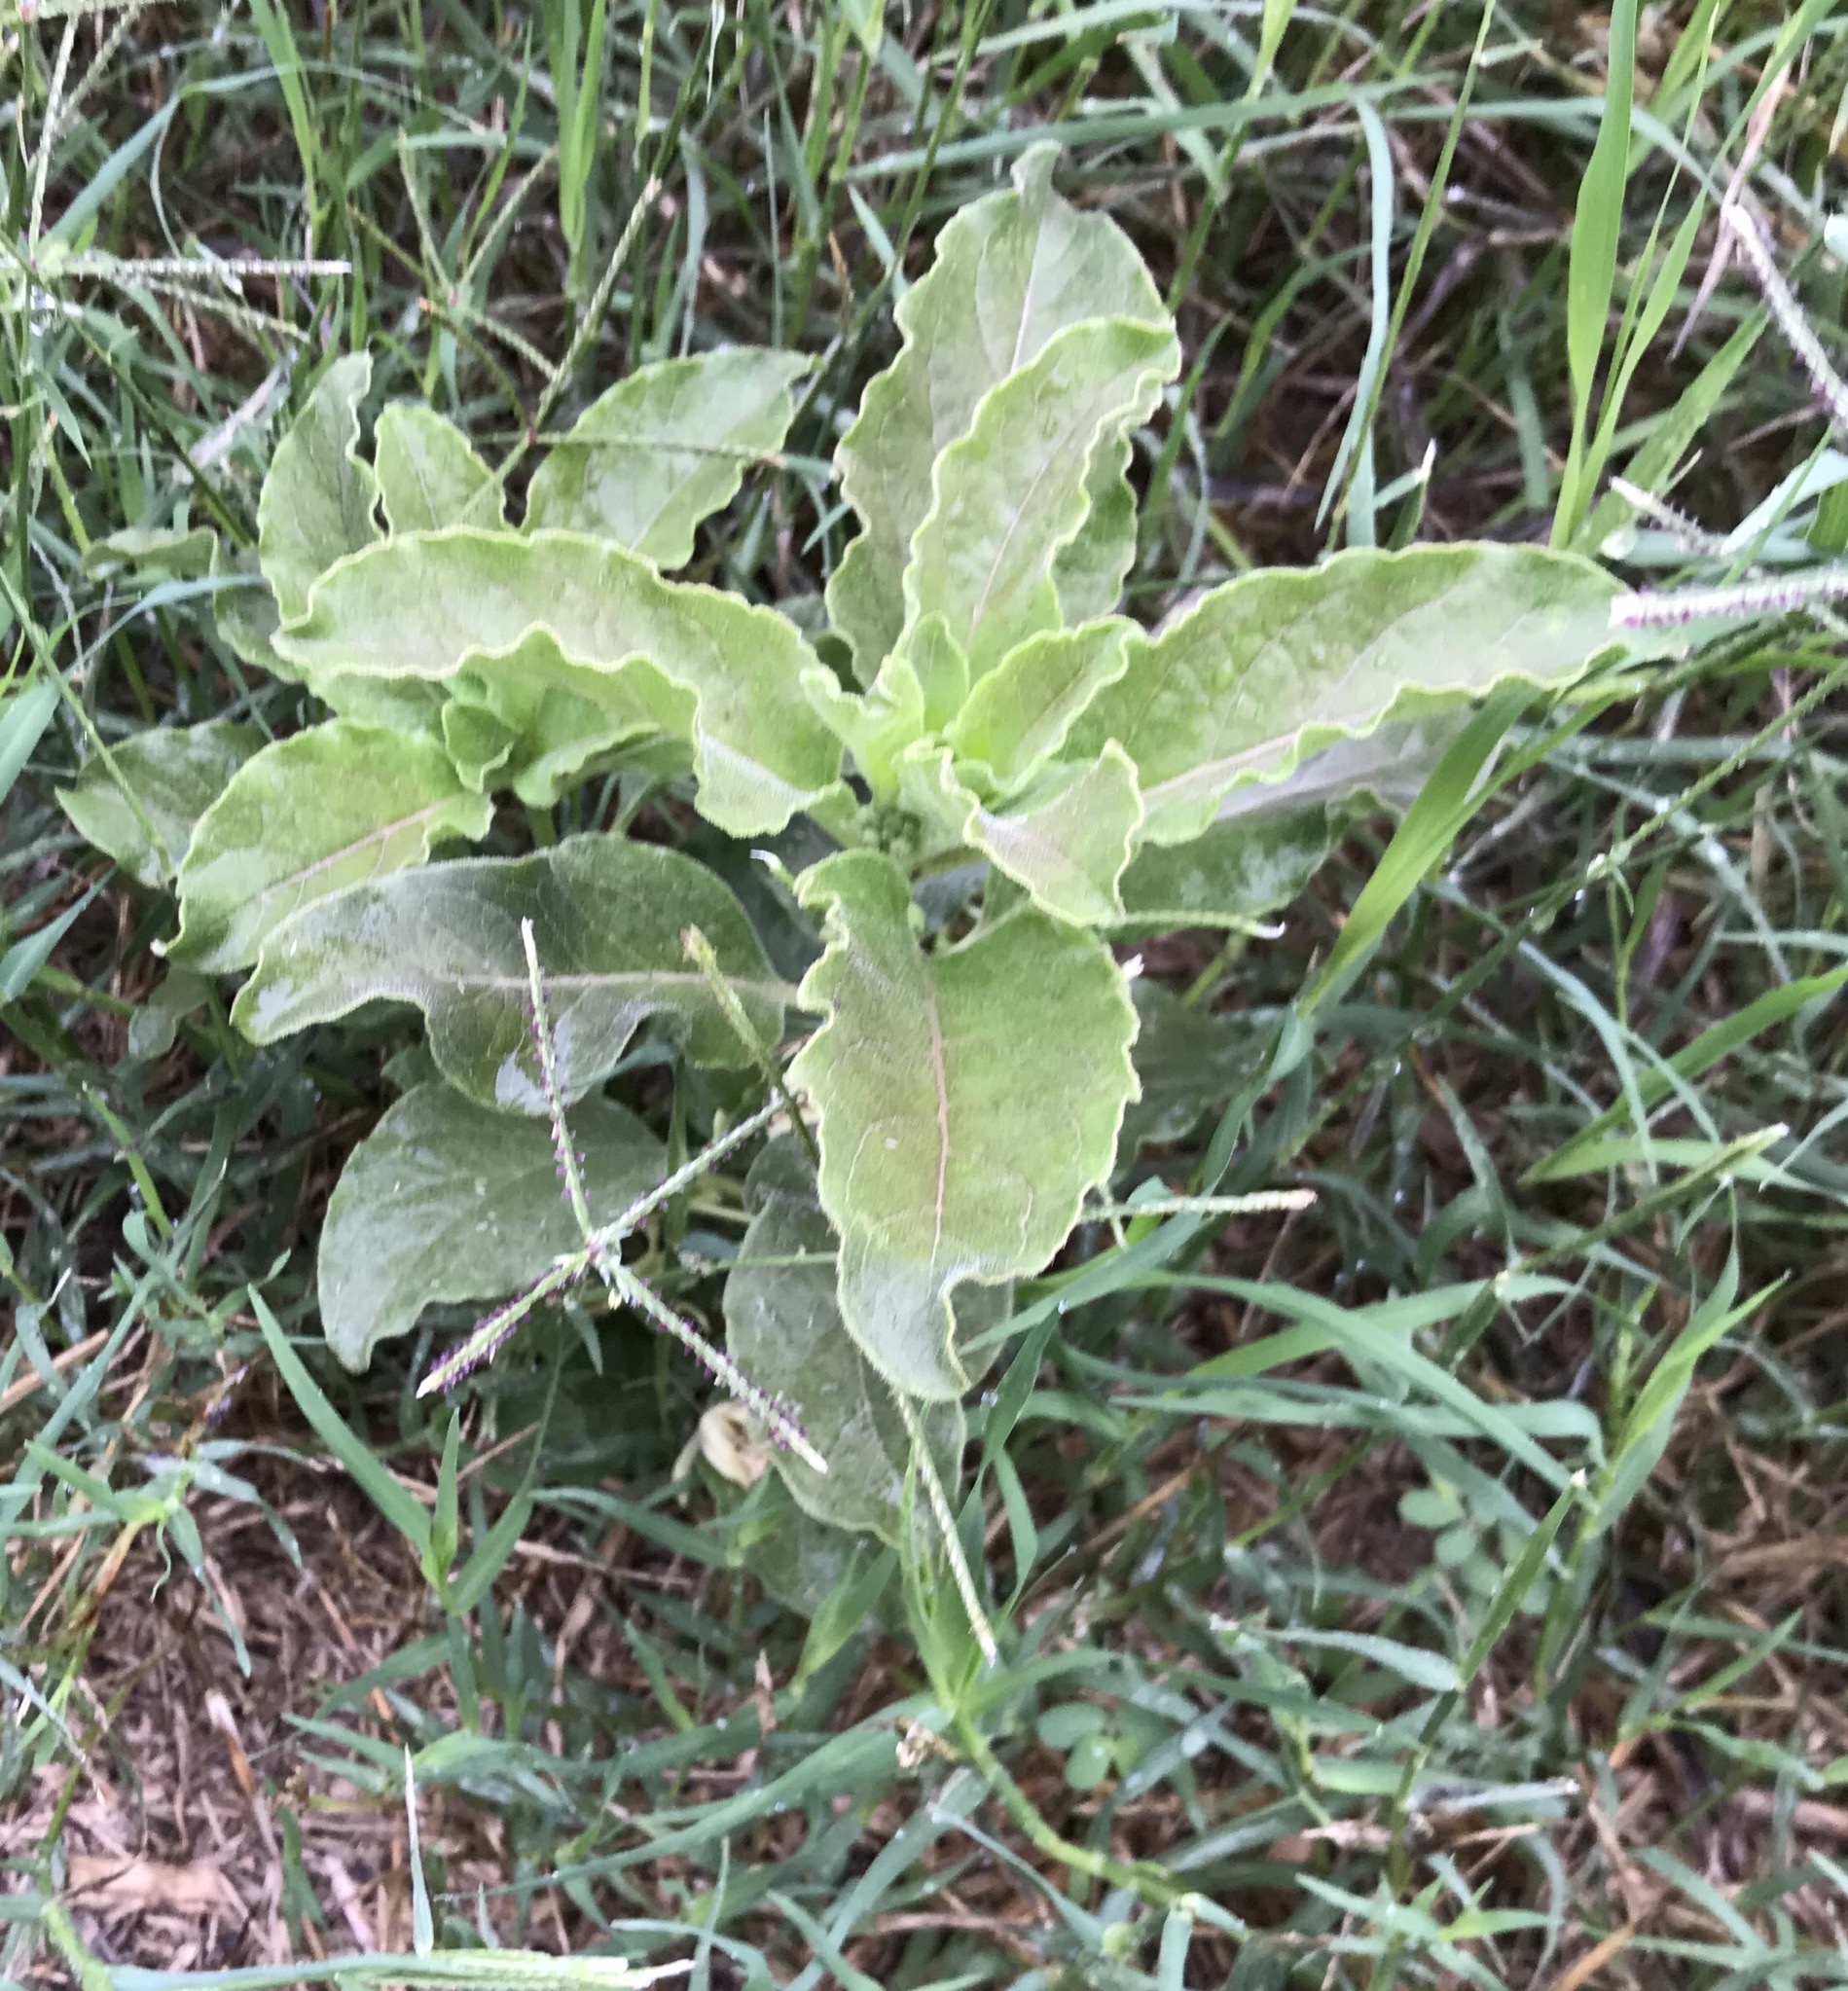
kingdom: Plantae
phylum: Tracheophyta
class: Magnoliopsida
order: Gentianales
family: Apocynaceae
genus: Asclepias
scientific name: Asclepias oenotheroides
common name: Zizotes milkweed
